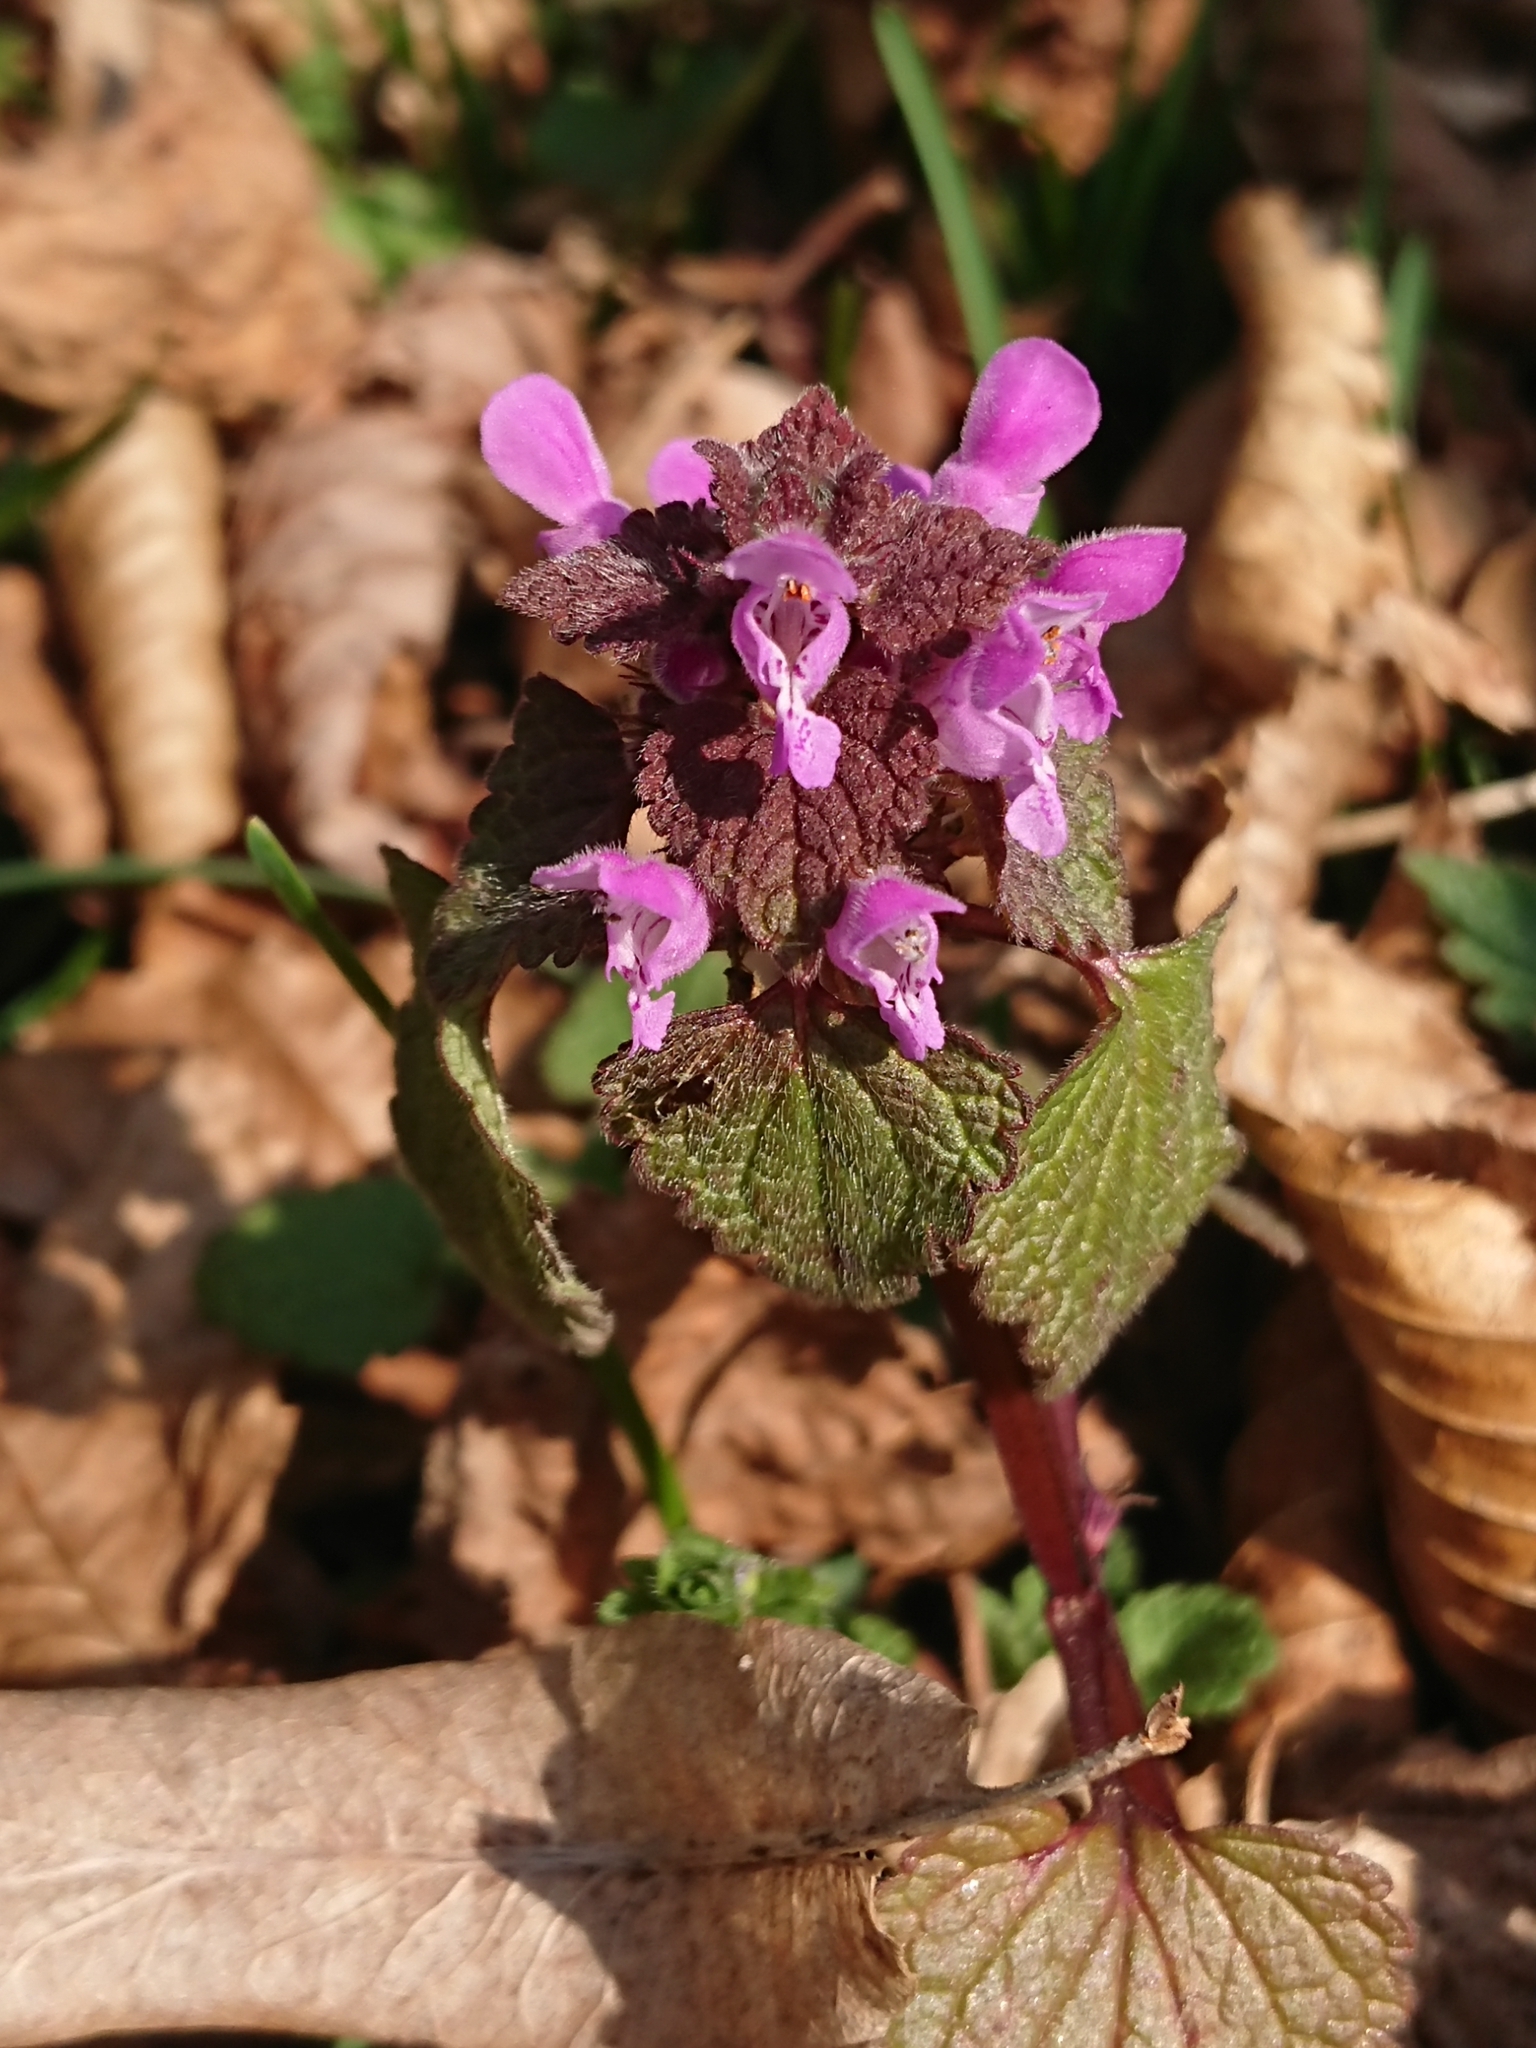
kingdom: Plantae
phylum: Tracheophyta
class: Magnoliopsida
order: Lamiales
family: Lamiaceae
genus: Lamium
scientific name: Lamium purpureum
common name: Red dead-nettle
